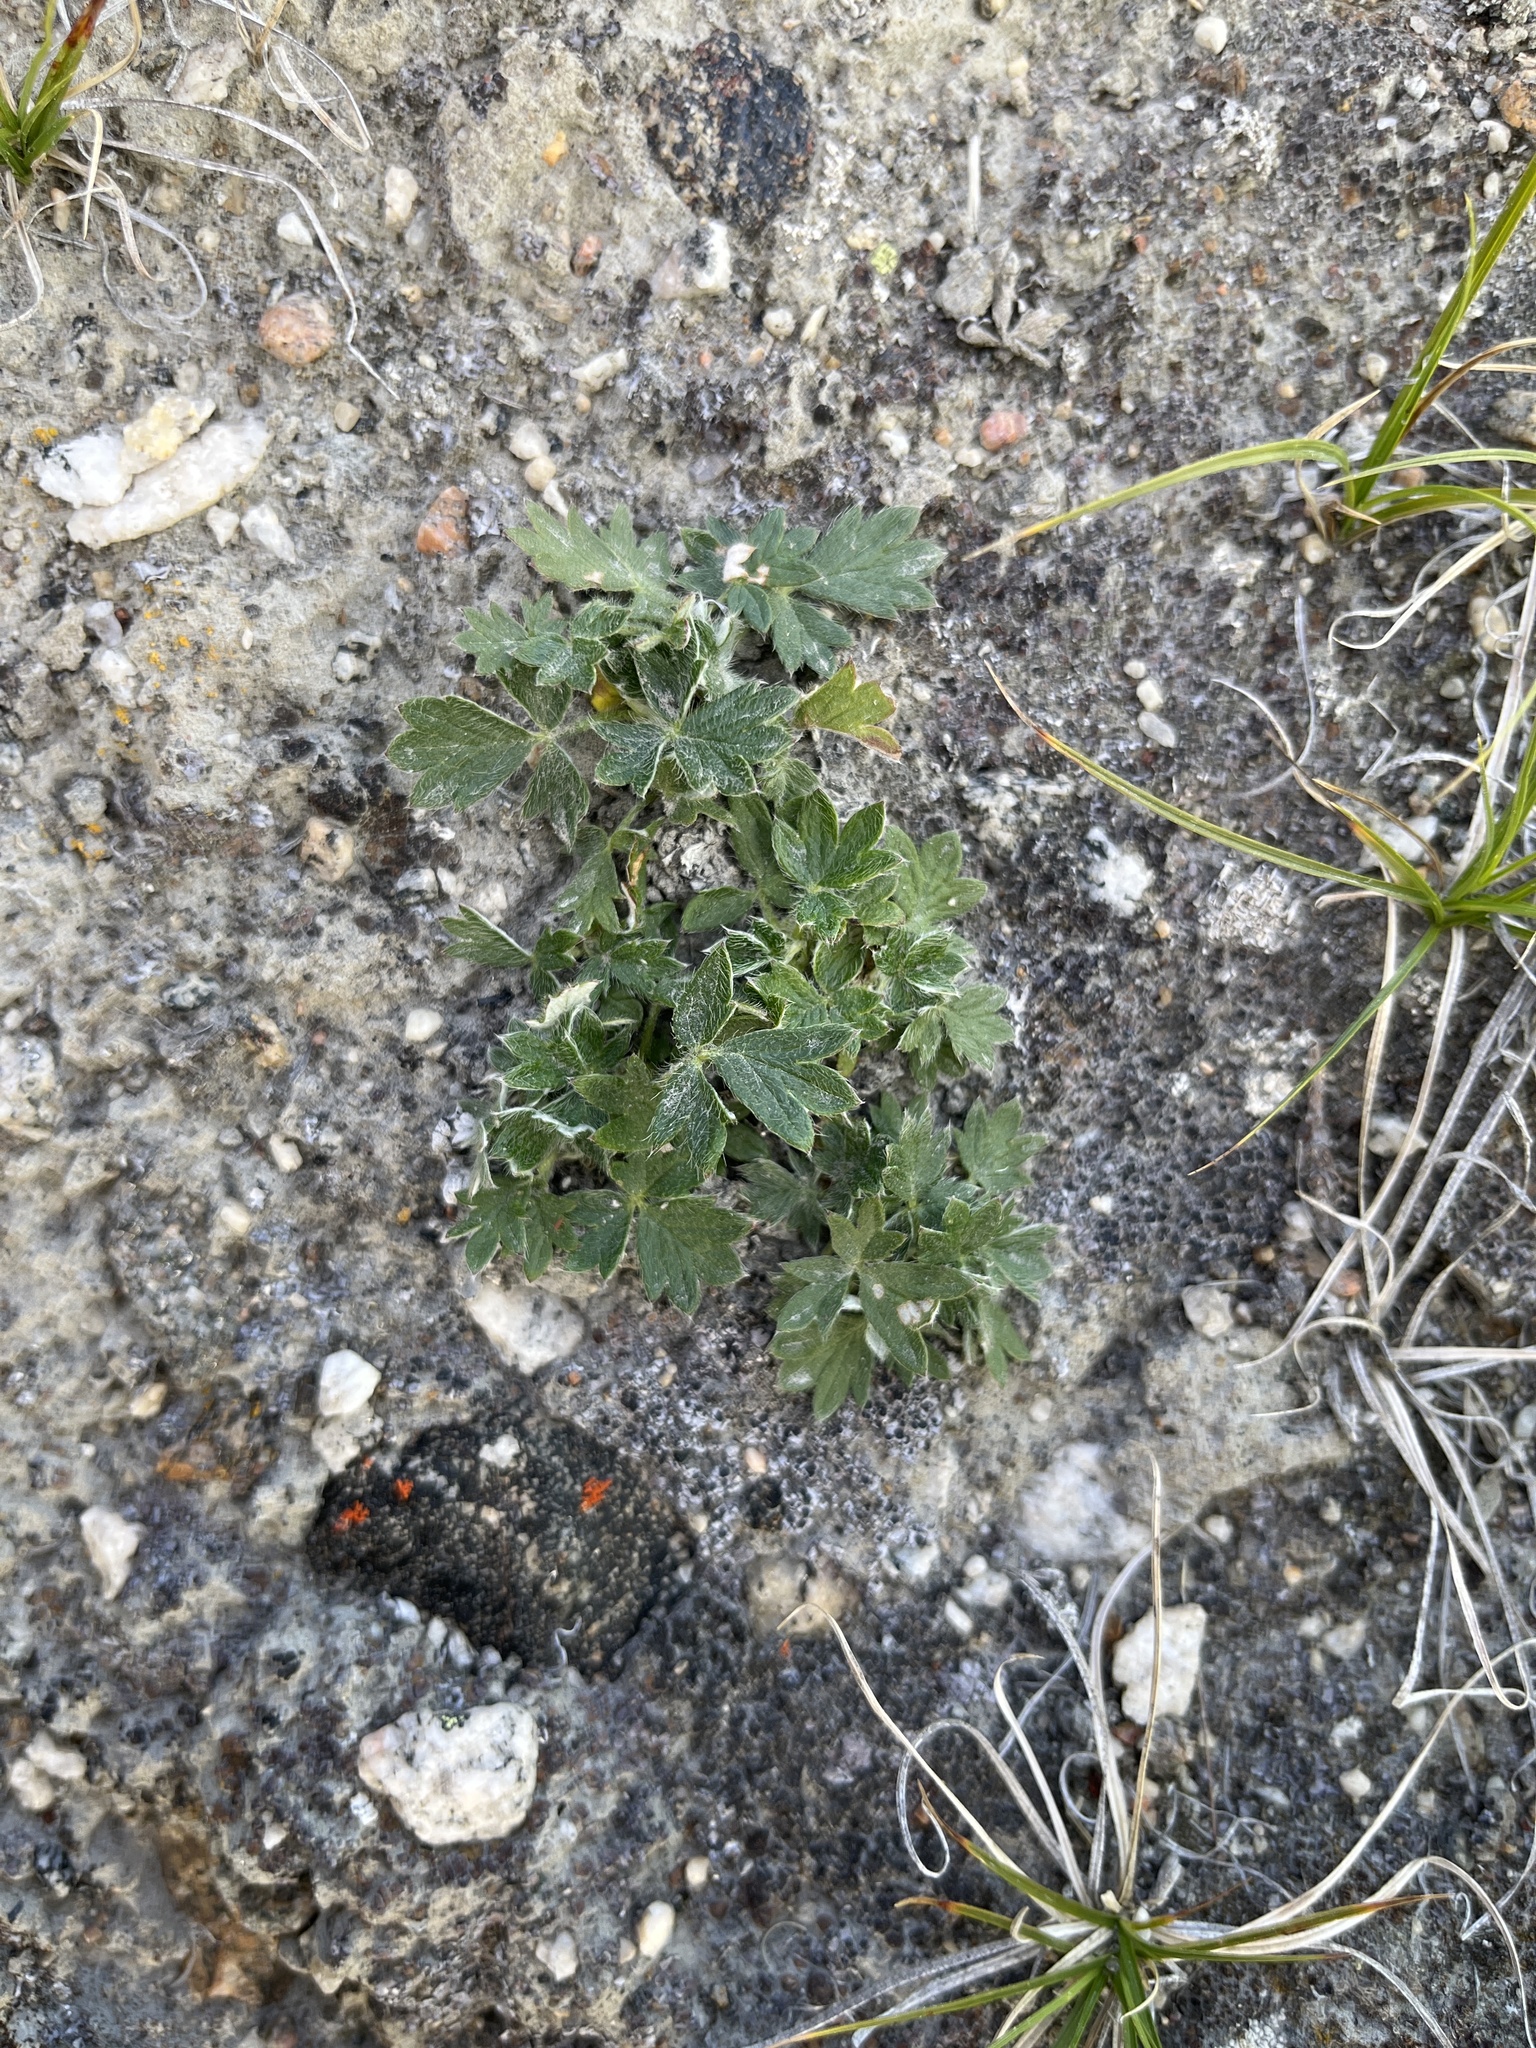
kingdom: Plantae
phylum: Tracheophyta
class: Magnoliopsida
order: Rosales
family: Rosaceae
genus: Potentilla
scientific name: Potentilla hookeriana
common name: Hooker's cinquefoil
